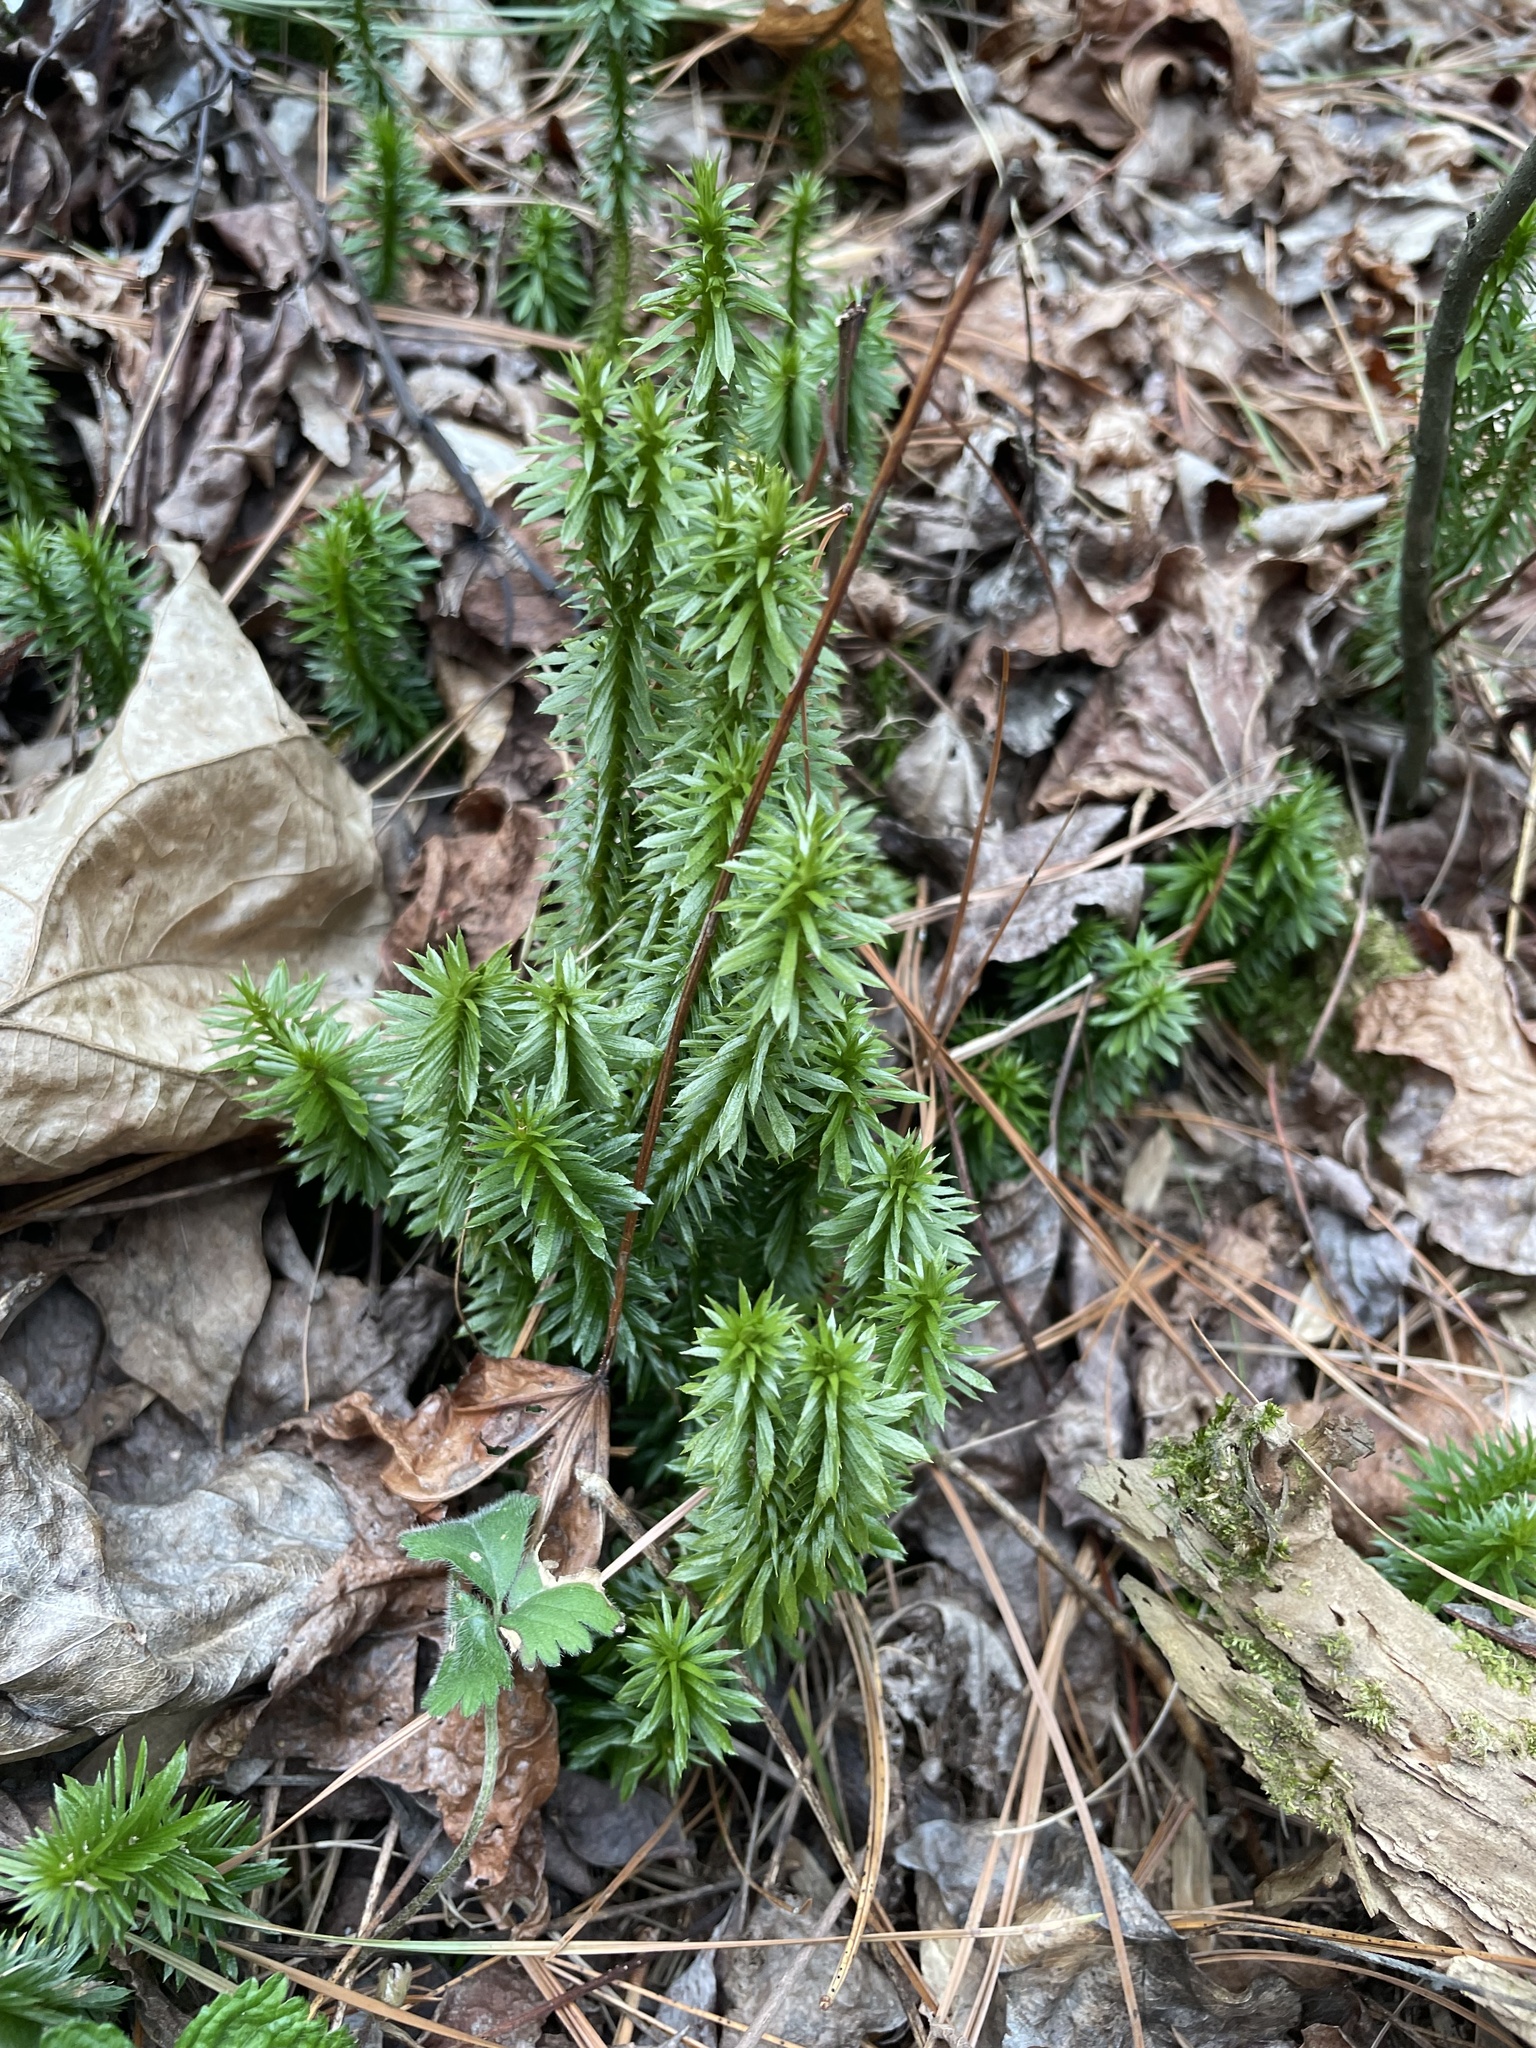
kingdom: Plantae
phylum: Tracheophyta
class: Lycopodiopsida
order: Lycopodiales
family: Lycopodiaceae
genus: Huperzia
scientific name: Huperzia lucidula
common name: Shining clubmoss
